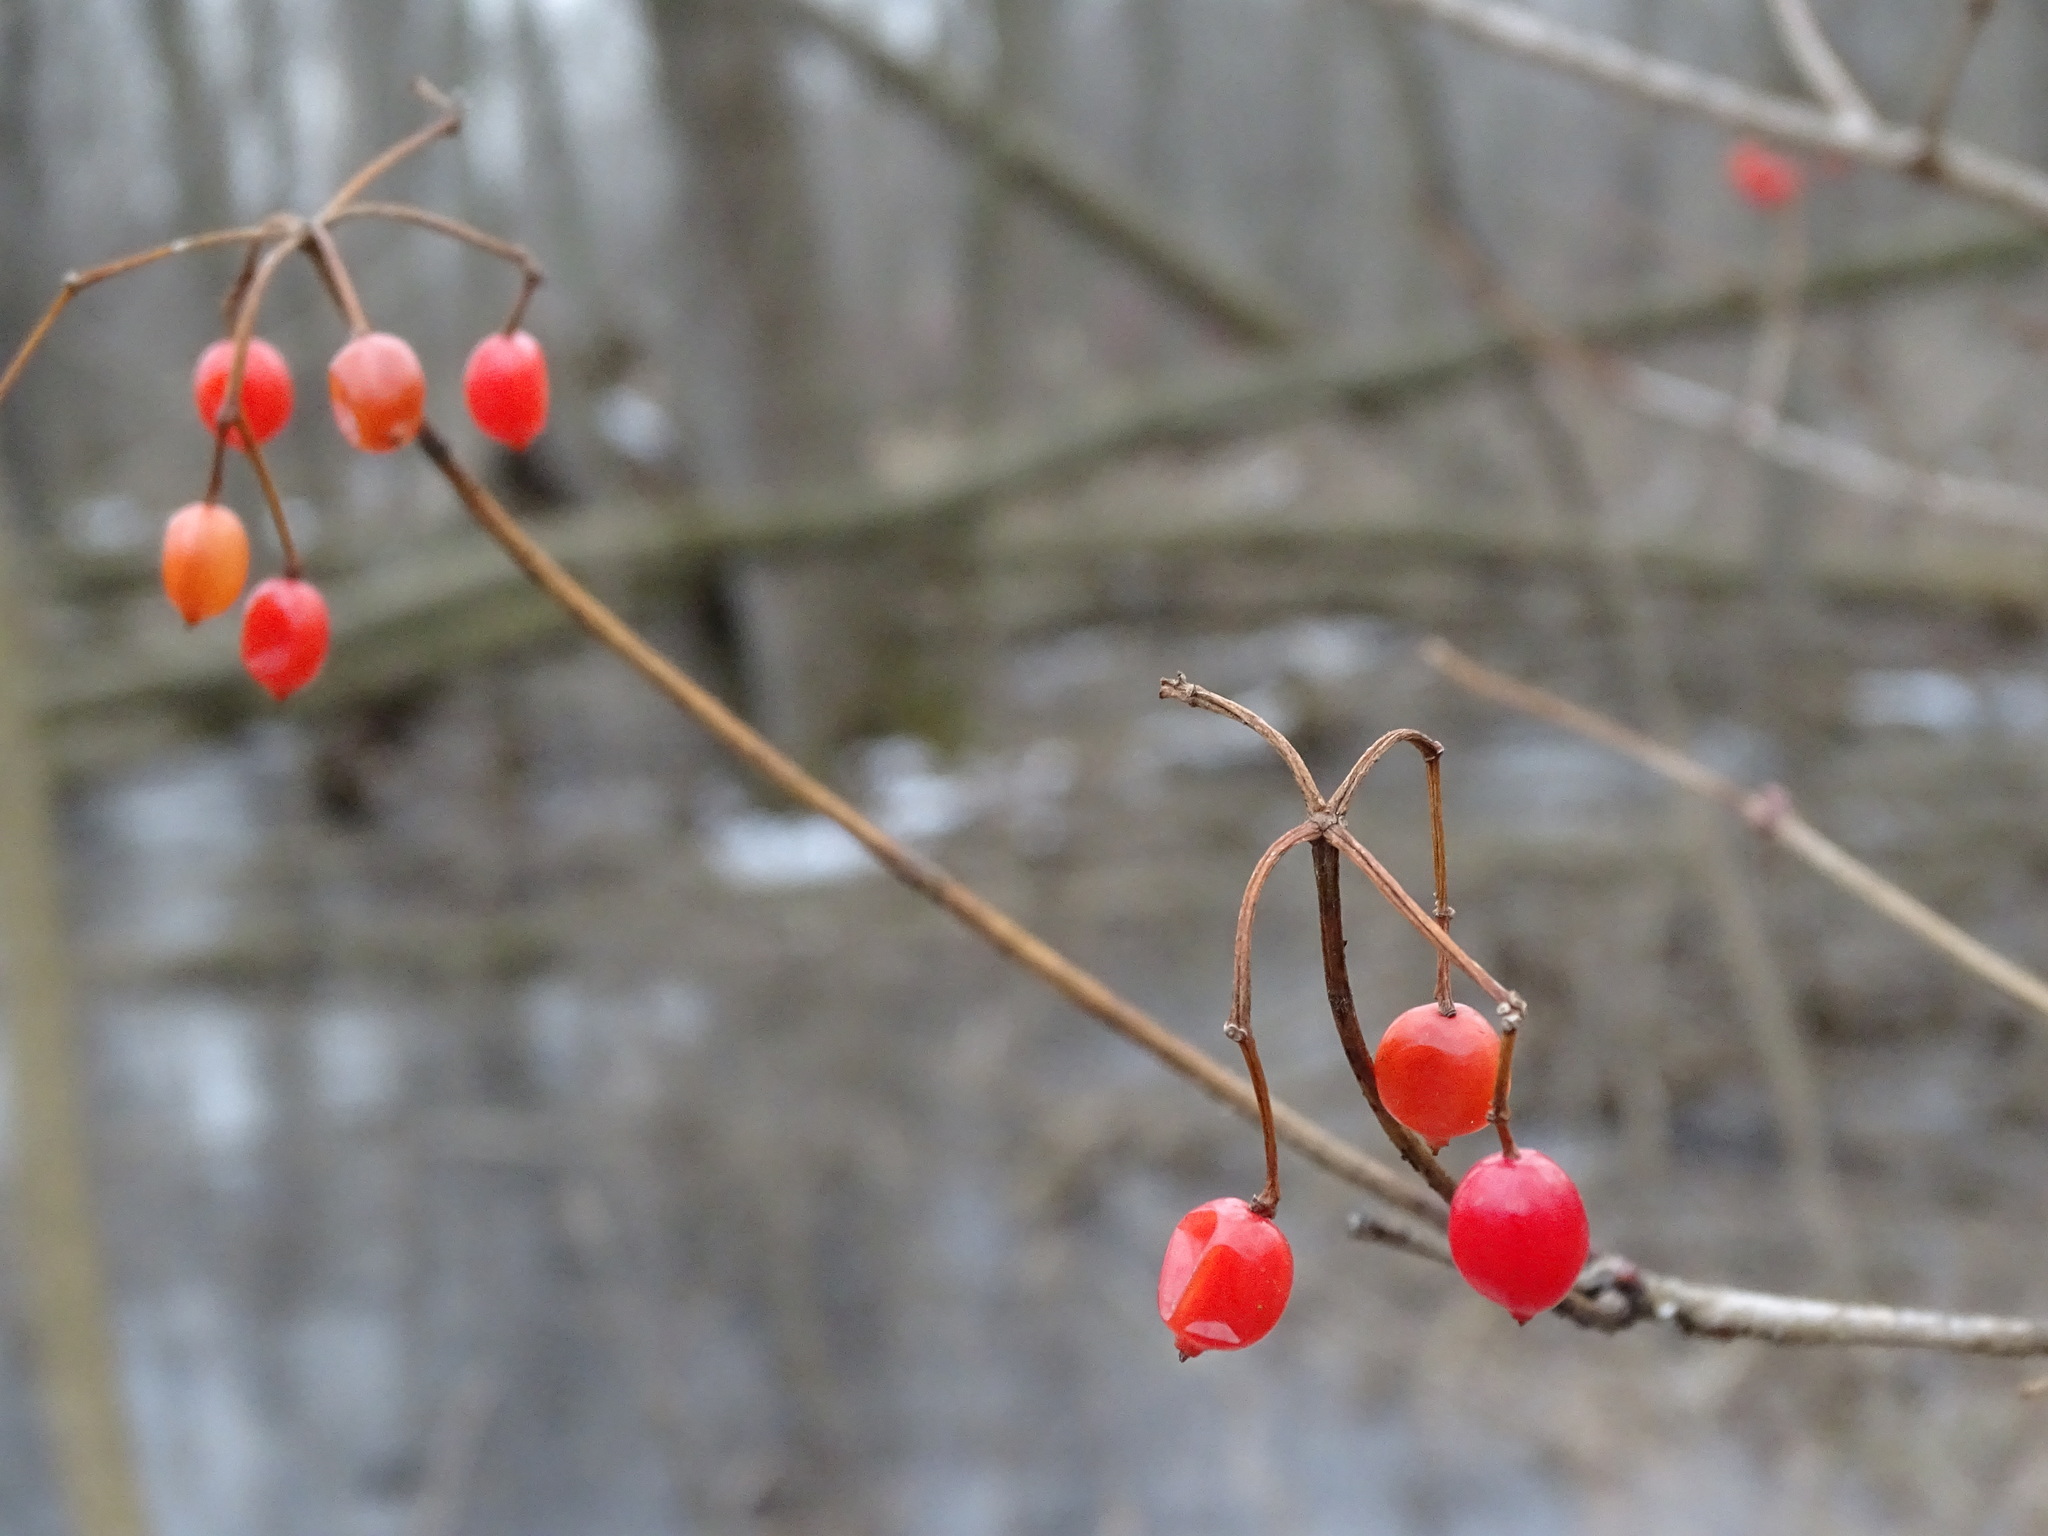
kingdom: Plantae
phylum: Tracheophyta
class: Magnoliopsida
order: Dipsacales
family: Viburnaceae
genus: Viburnum
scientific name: Viburnum opulus
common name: Guelder-rose
